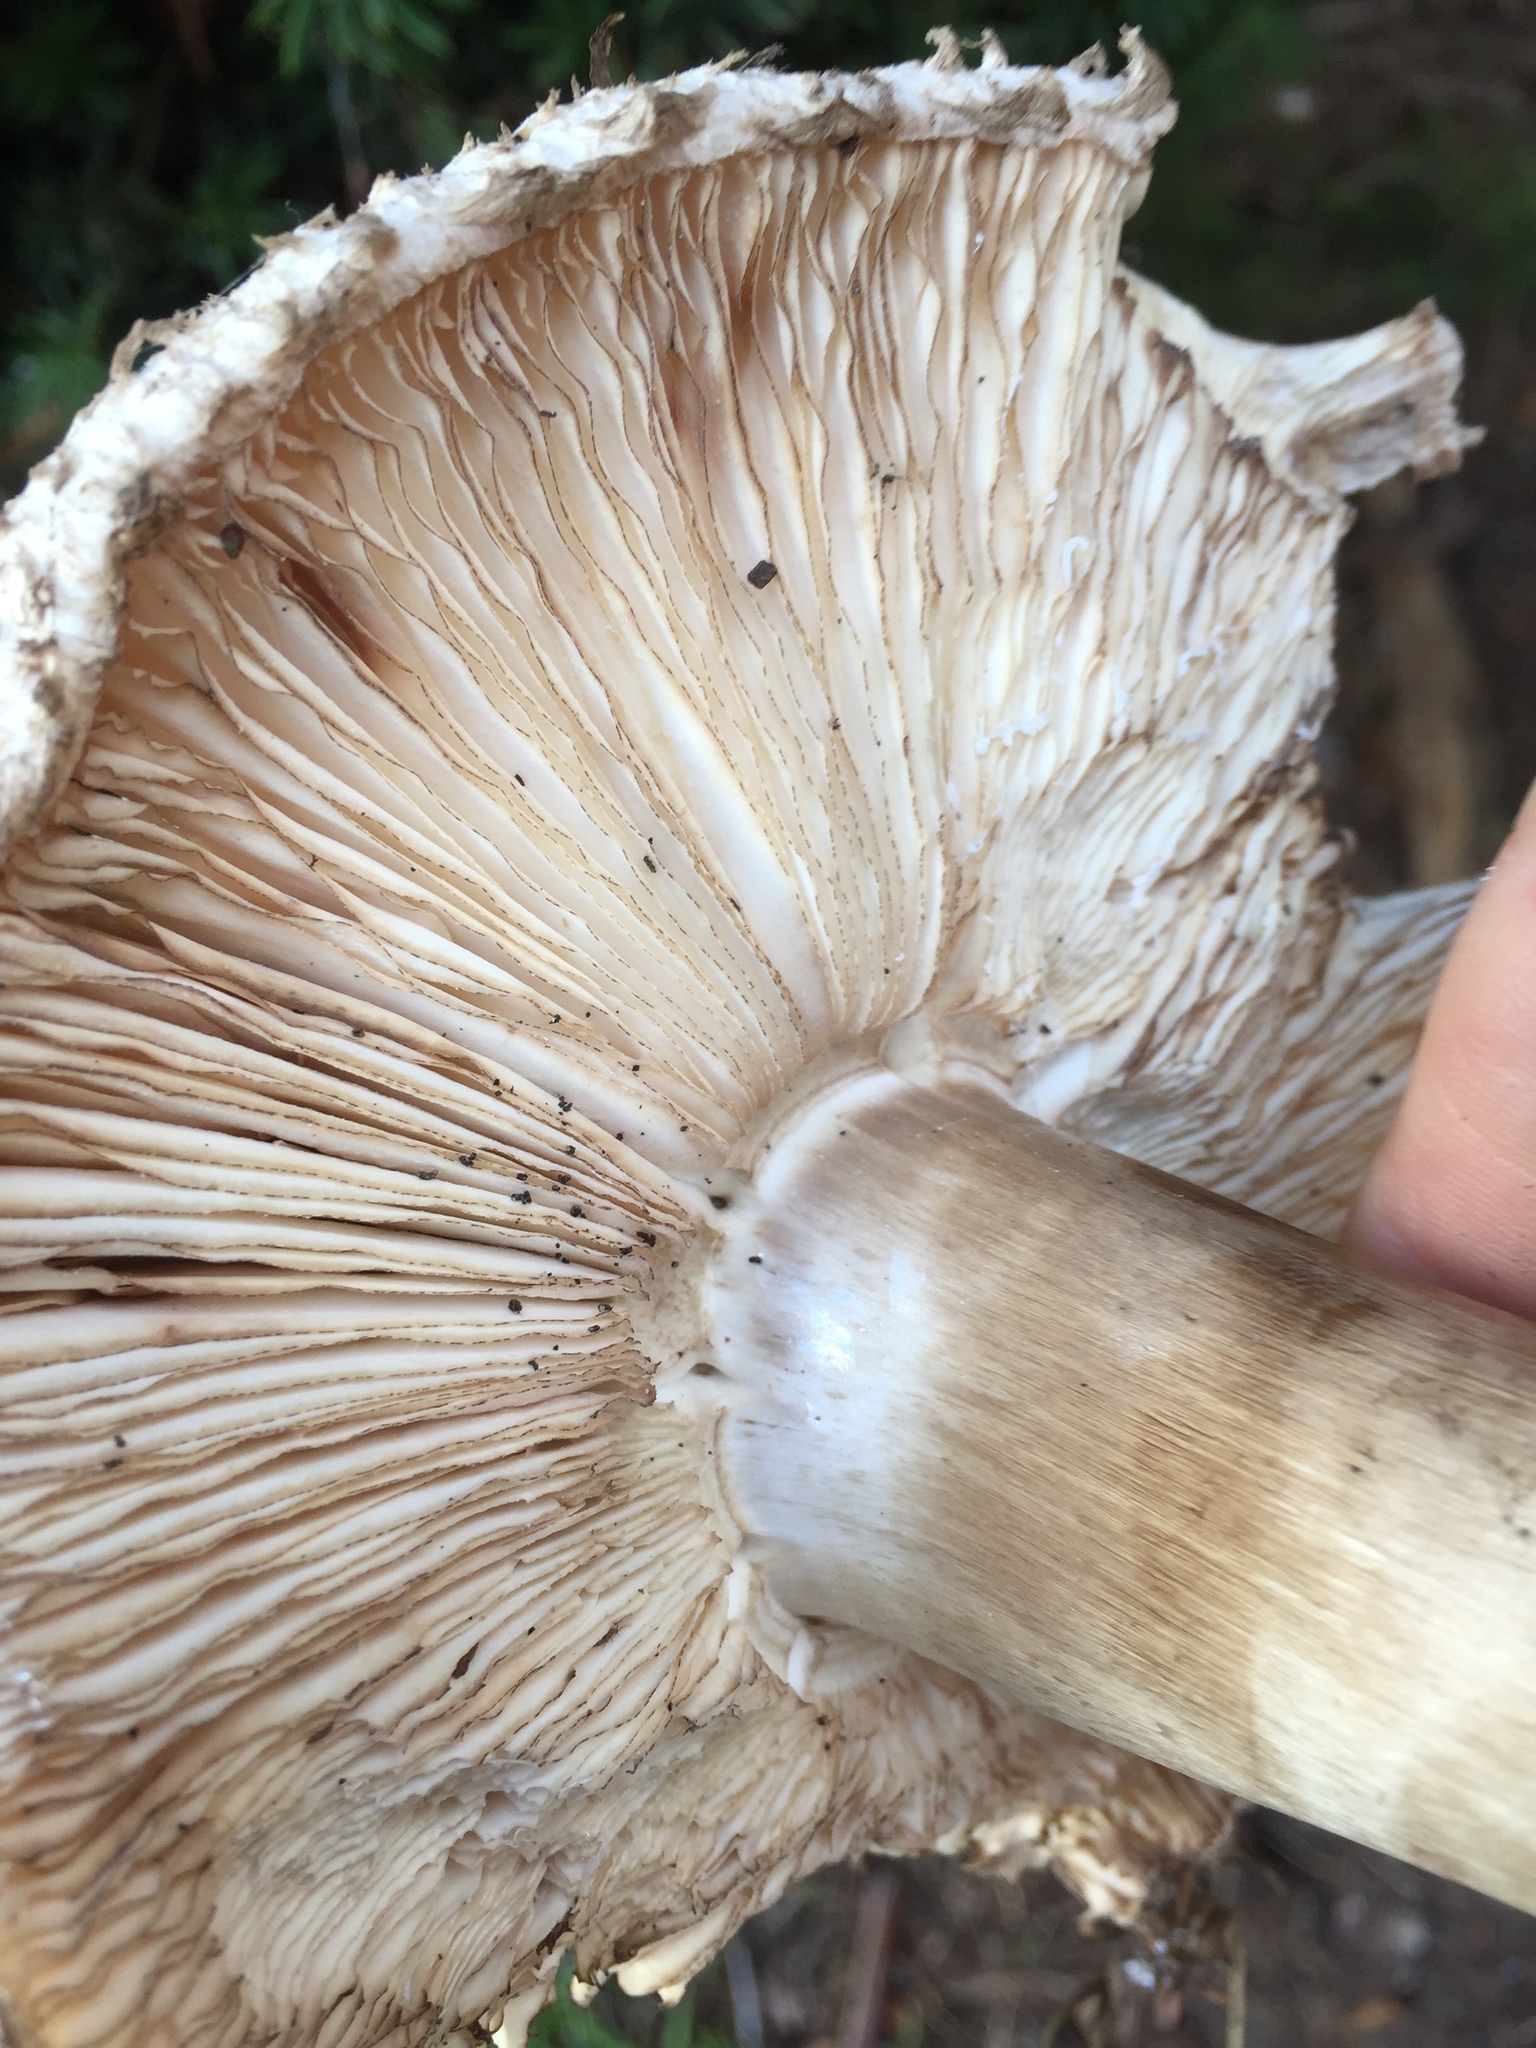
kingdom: Fungi
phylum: Basidiomycota
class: Agaricomycetes
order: Agaricales
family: Agaricaceae
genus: Chlorophyllum
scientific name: Chlorophyllum brunneum
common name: Brown parasol
